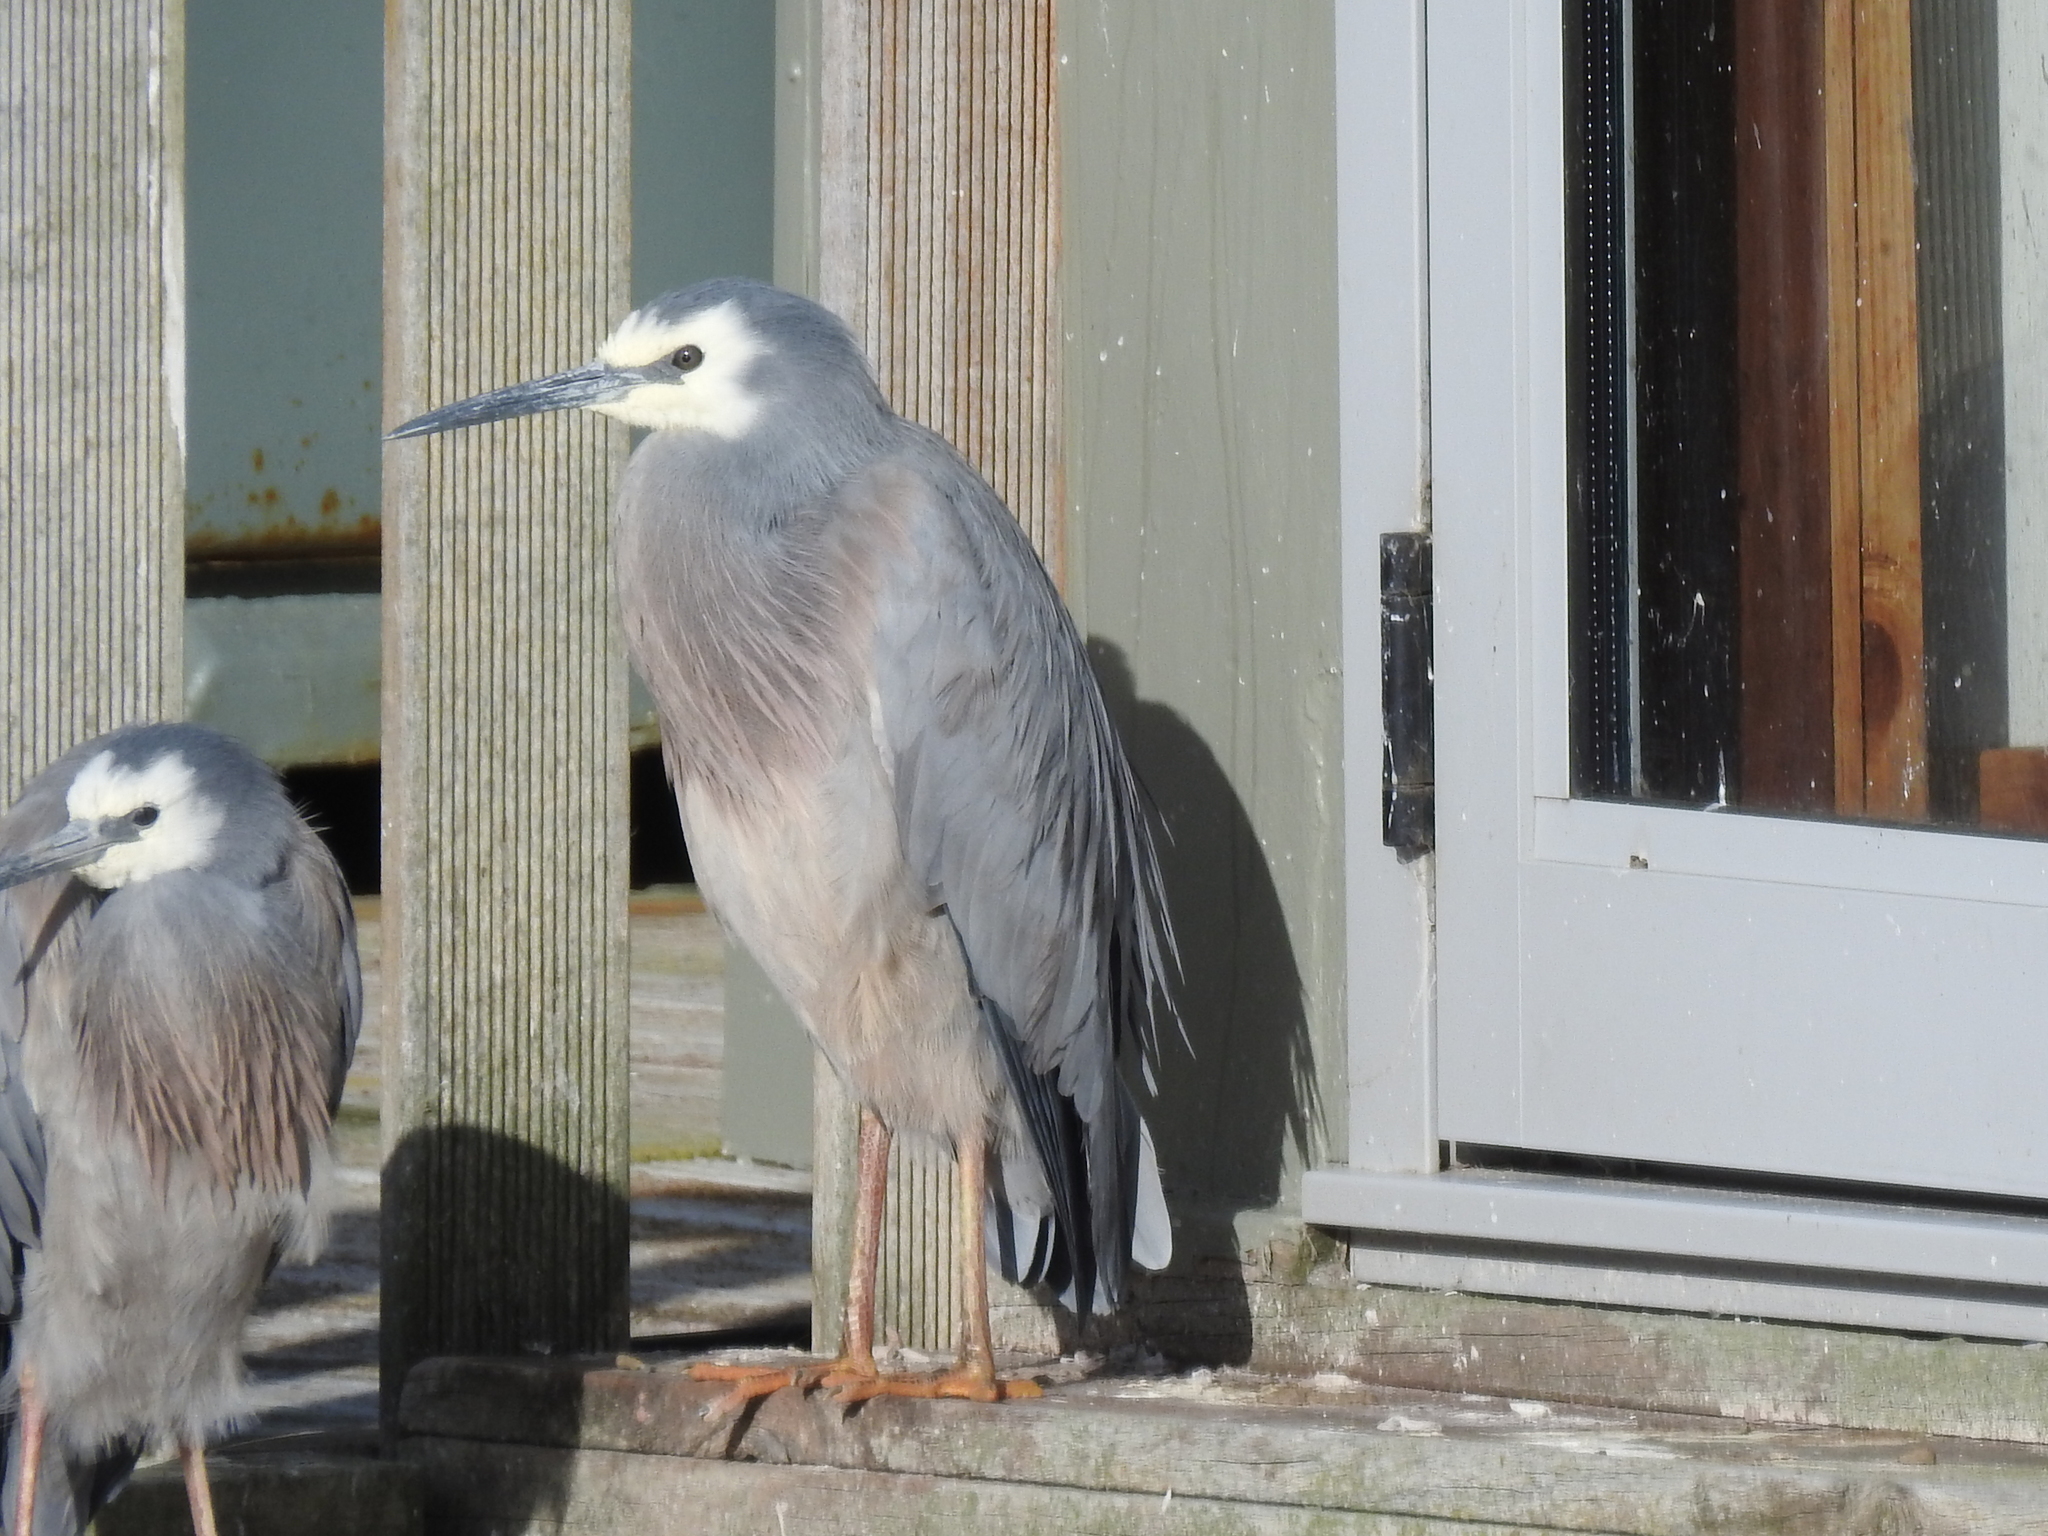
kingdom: Animalia
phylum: Chordata
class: Aves
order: Pelecaniformes
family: Ardeidae
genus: Egretta
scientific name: Egretta novaehollandiae
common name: White-faced heron
